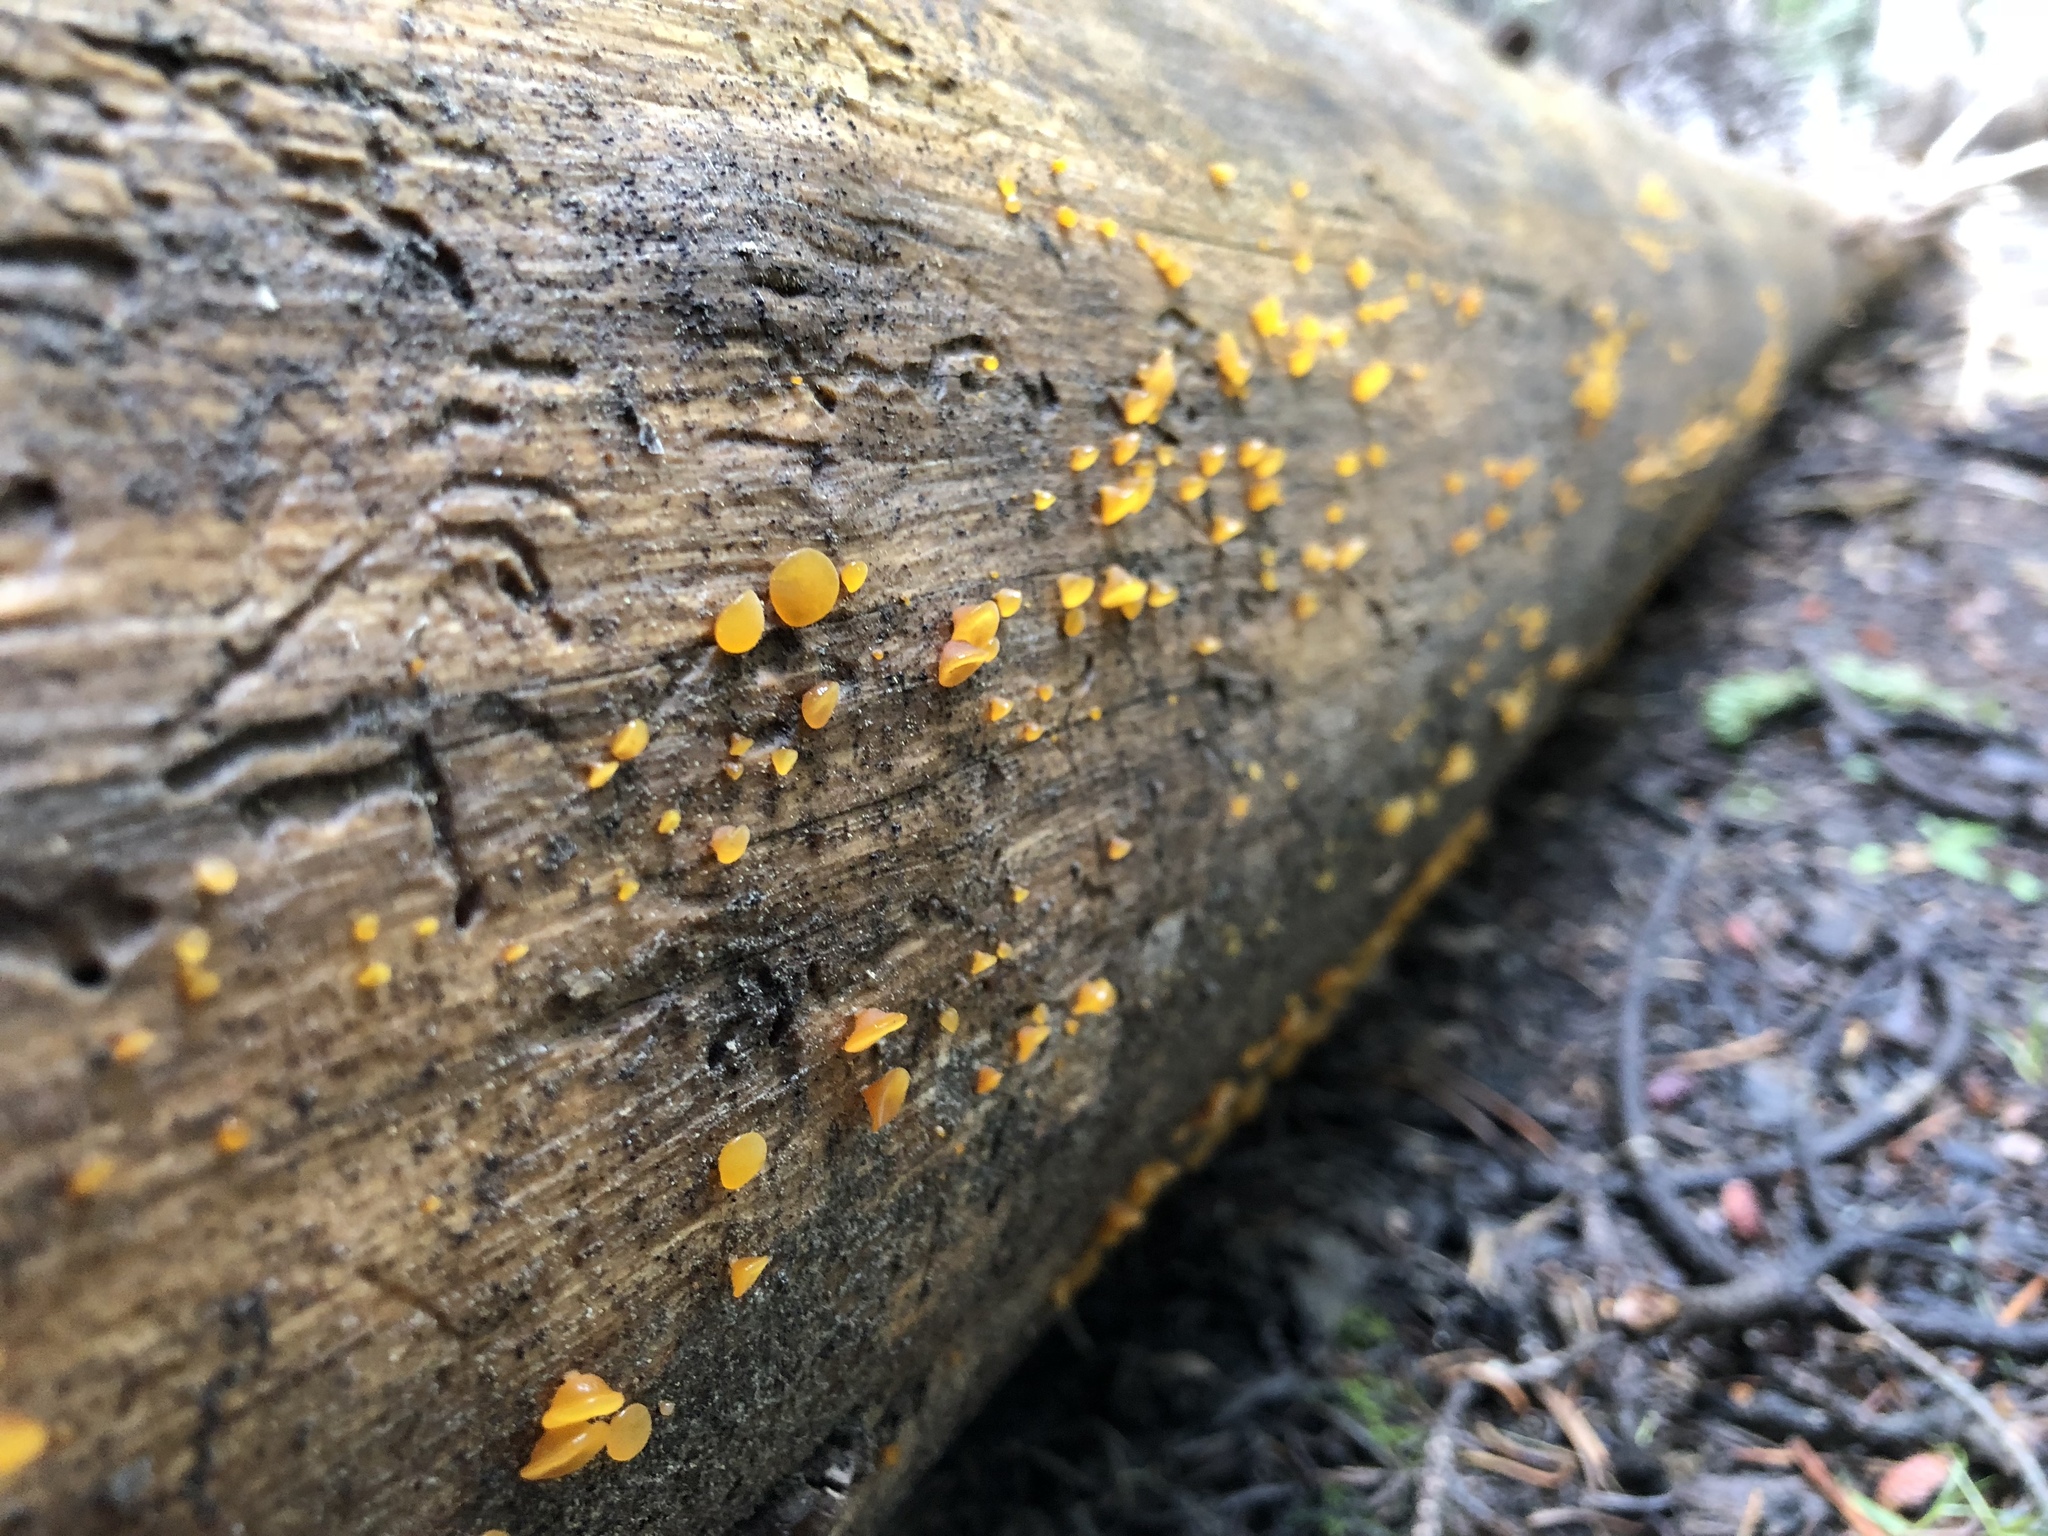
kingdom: Fungi
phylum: Basidiomycota
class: Dacrymycetes
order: Dacrymycetales
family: Dacrymycetaceae
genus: Guepiniopsis
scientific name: Guepiniopsis alpina
